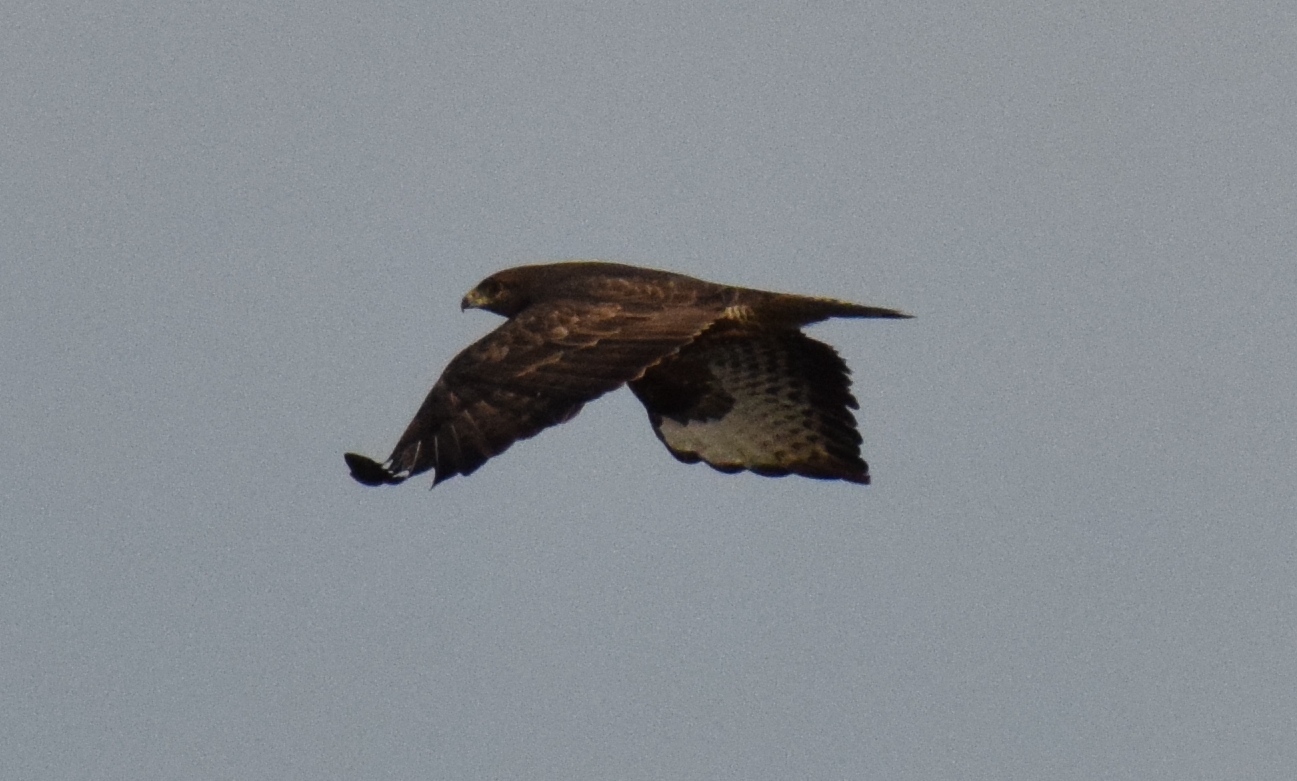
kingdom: Animalia
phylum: Chordata
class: Aves
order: Accipitriformes
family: Accipitridae
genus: Buteo
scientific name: Buteo buteo
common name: Common buzzard
